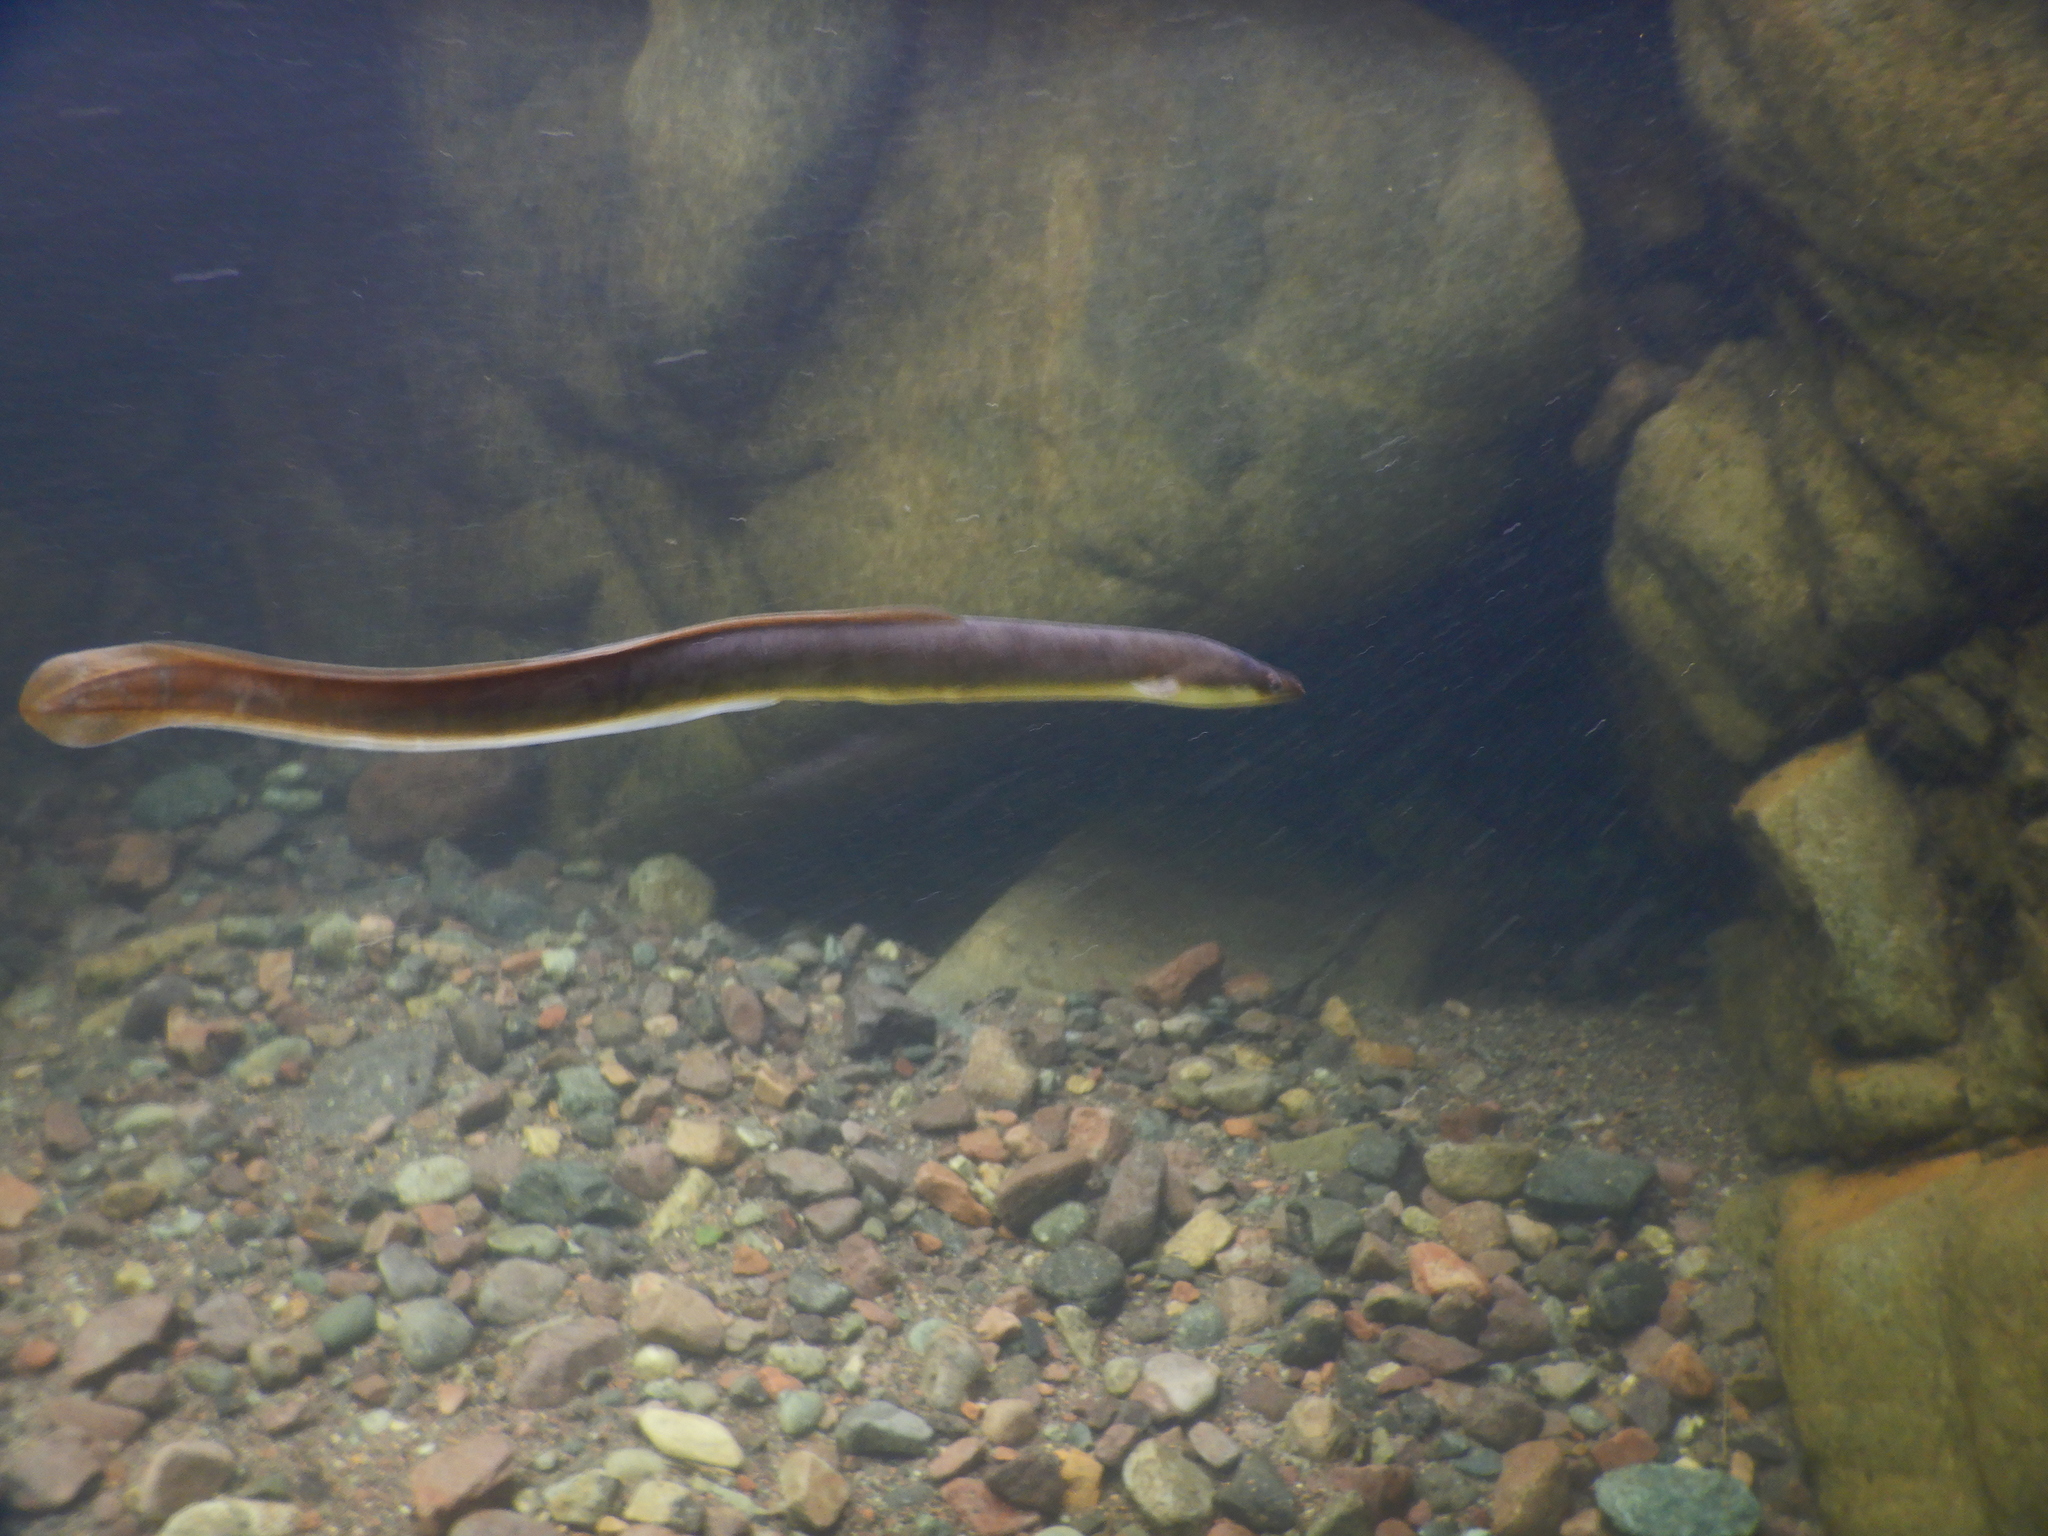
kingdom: Animalia
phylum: Chordata
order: Anguilliformes
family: Anguillidae
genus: Anguilla
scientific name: Anguilla anguilla
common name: European eel
